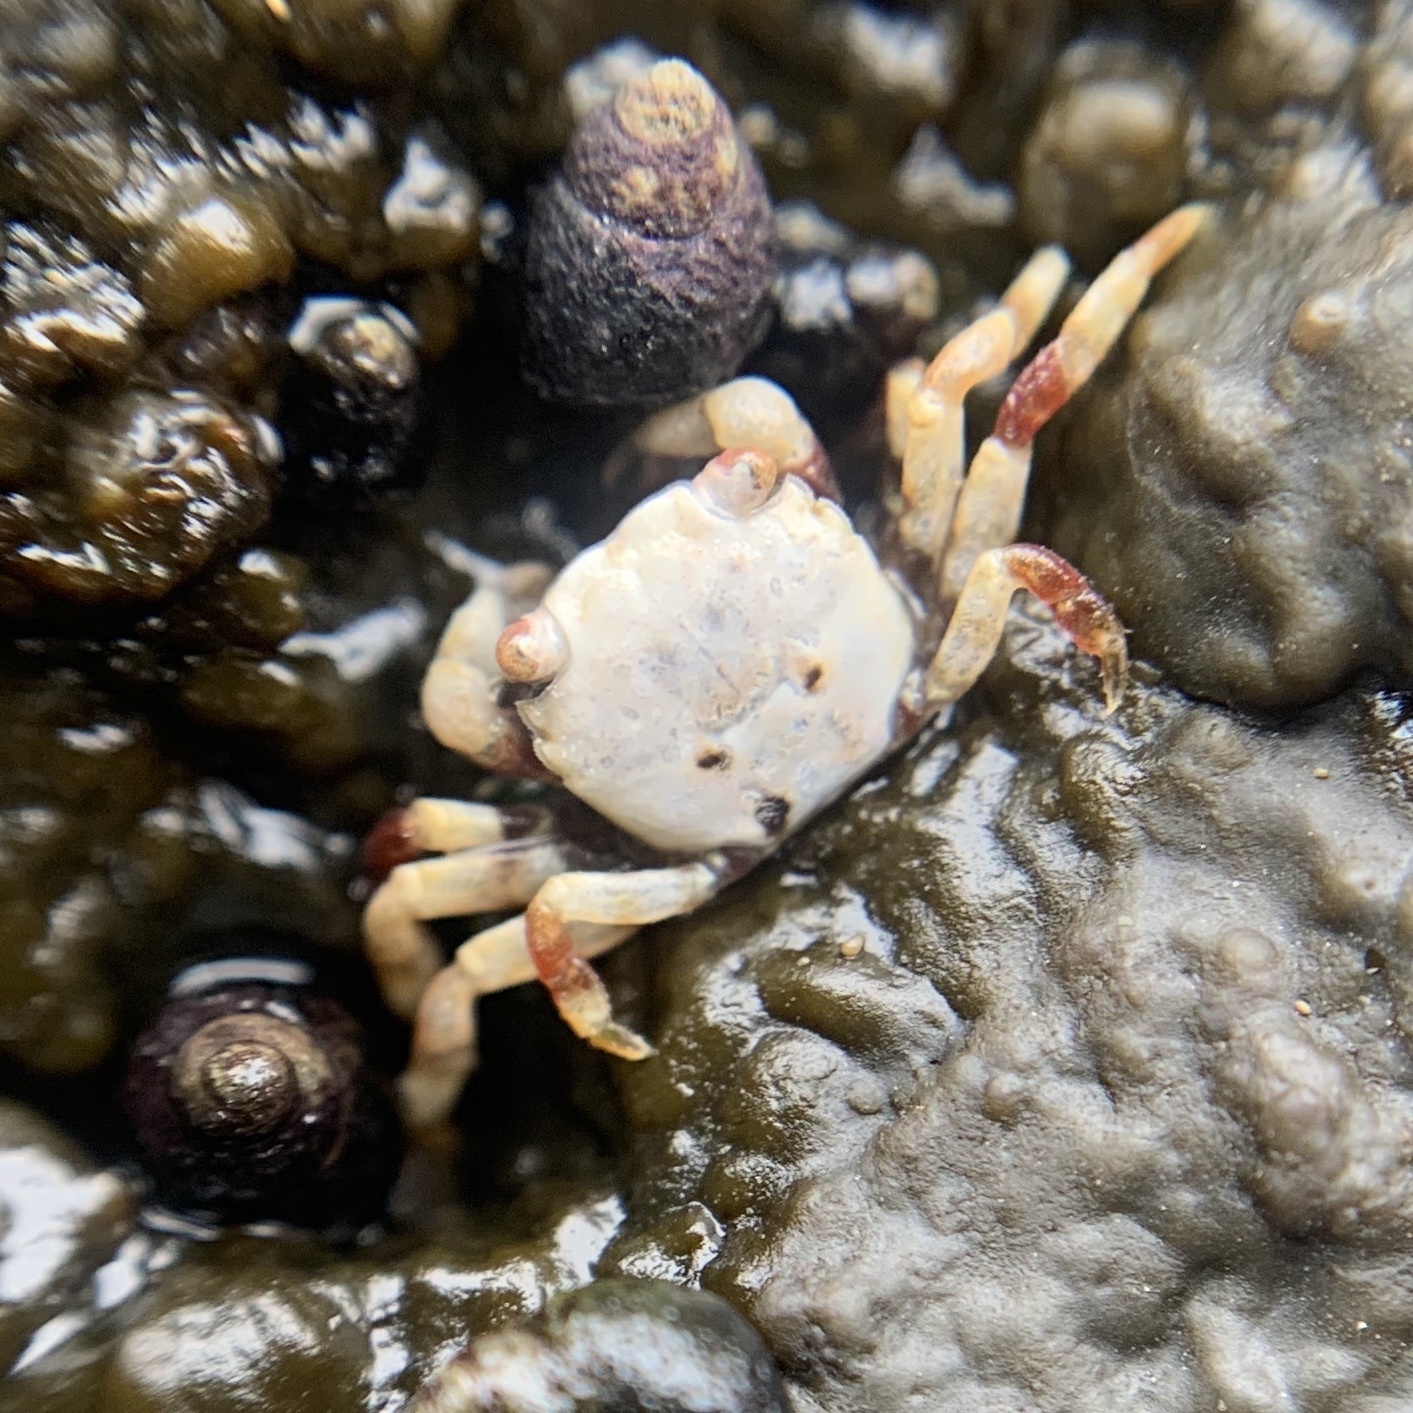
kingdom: Animalia
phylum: Arthropoda
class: Malacostraca
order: Decapoda
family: Varunidae
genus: Hemigrapsus
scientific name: Hemigrapsus oregonensis
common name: Yellow shore crab
